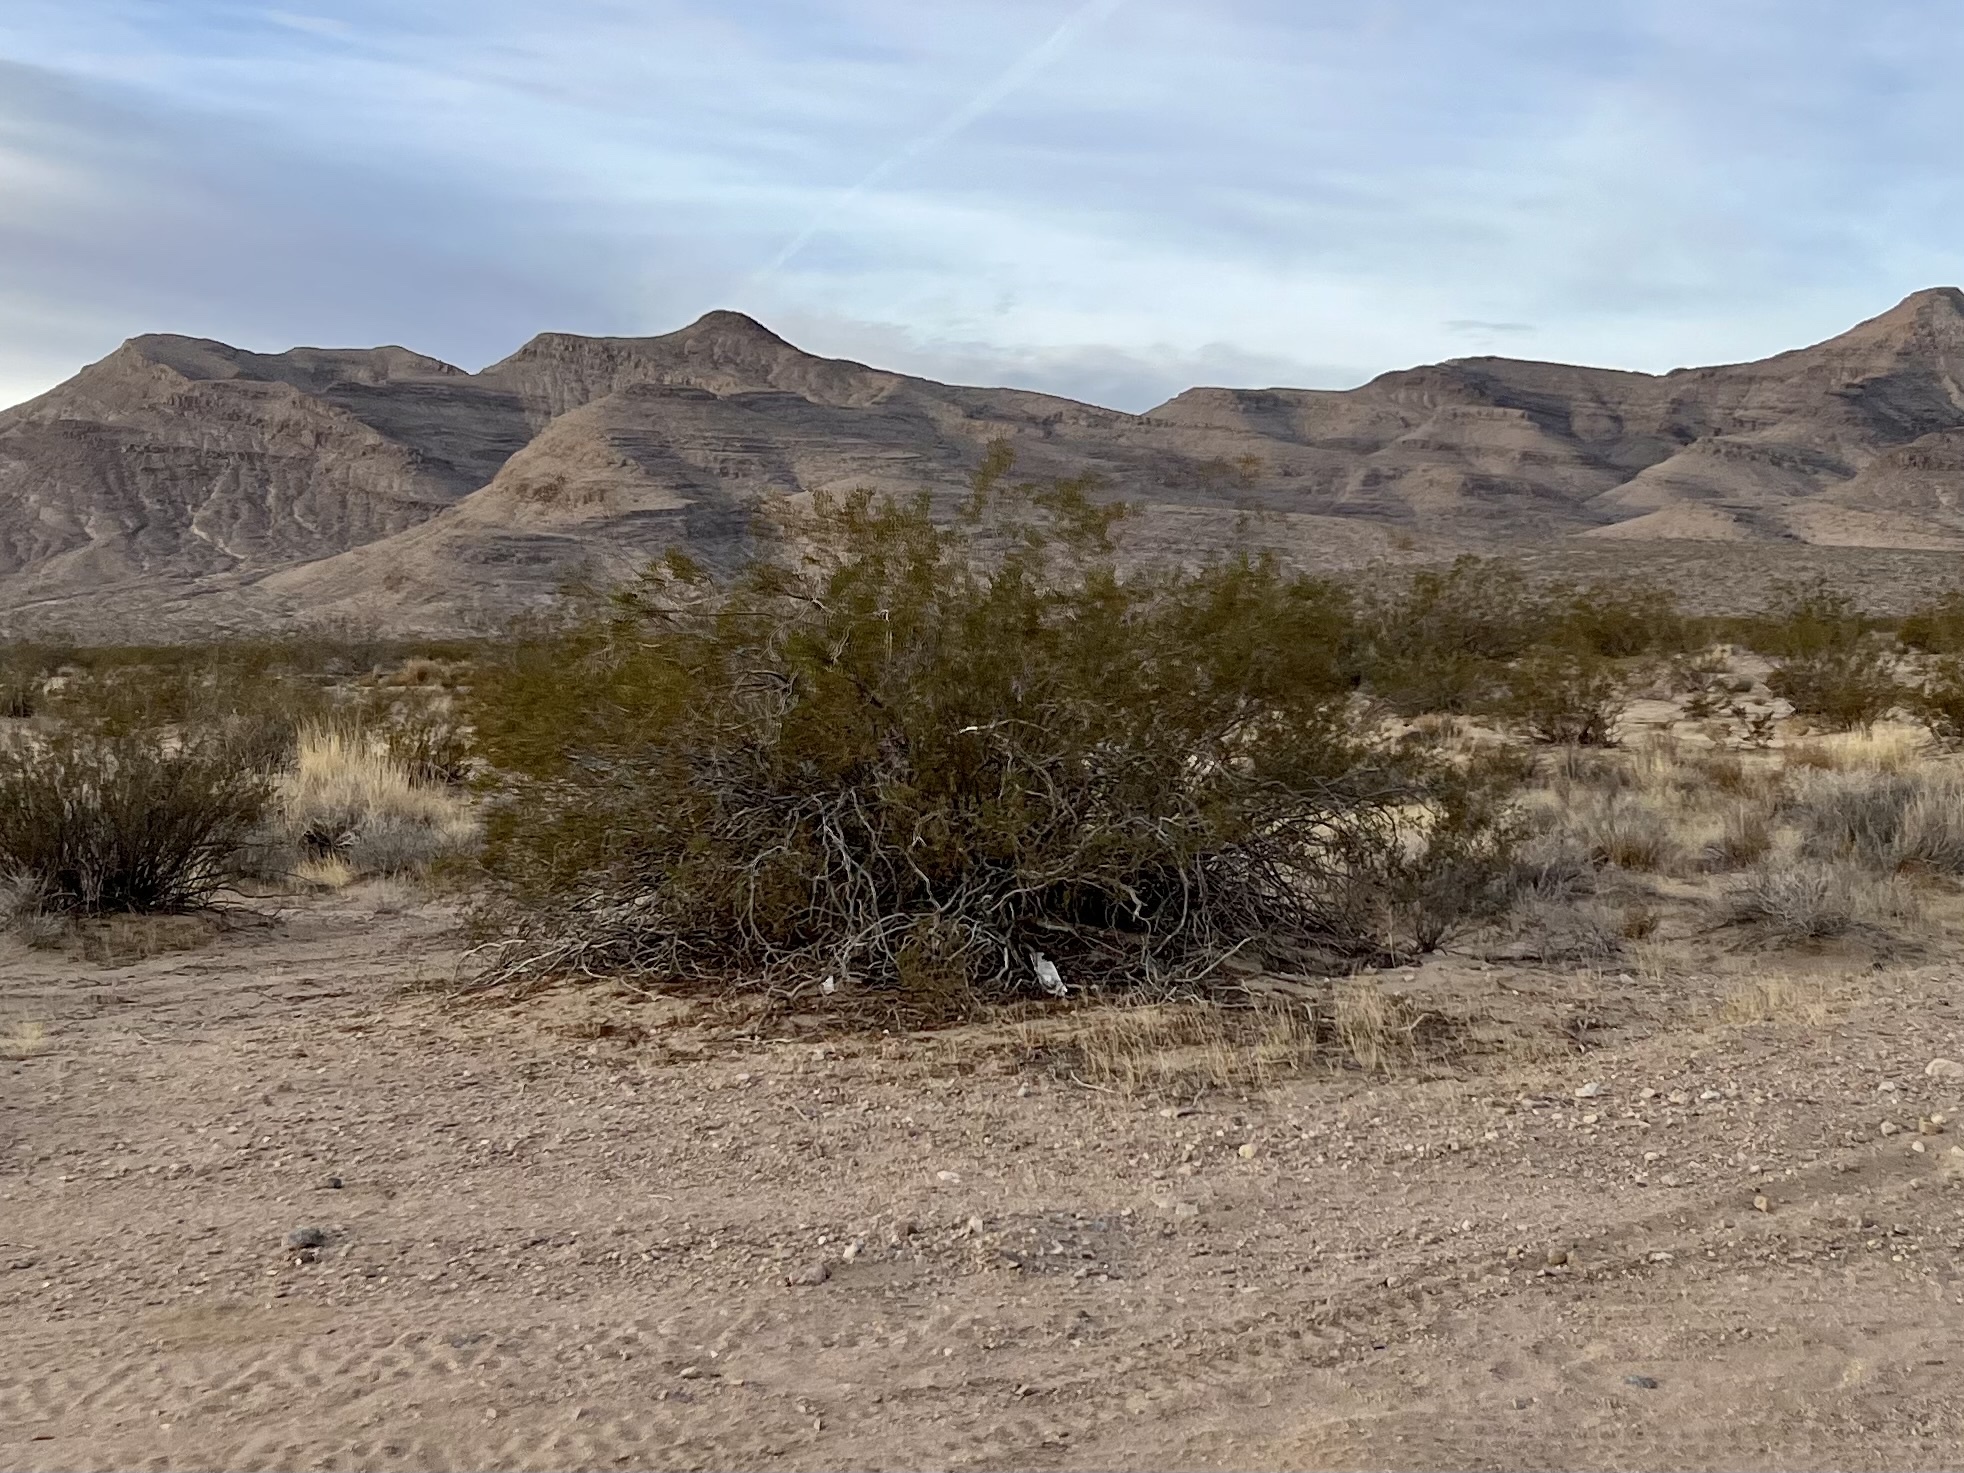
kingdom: Plantae
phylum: Tracheophyta
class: Magnoliopsida
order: Zygophyllales
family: Zygophyllaceae
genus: Larrea
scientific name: Larrea tridentata
